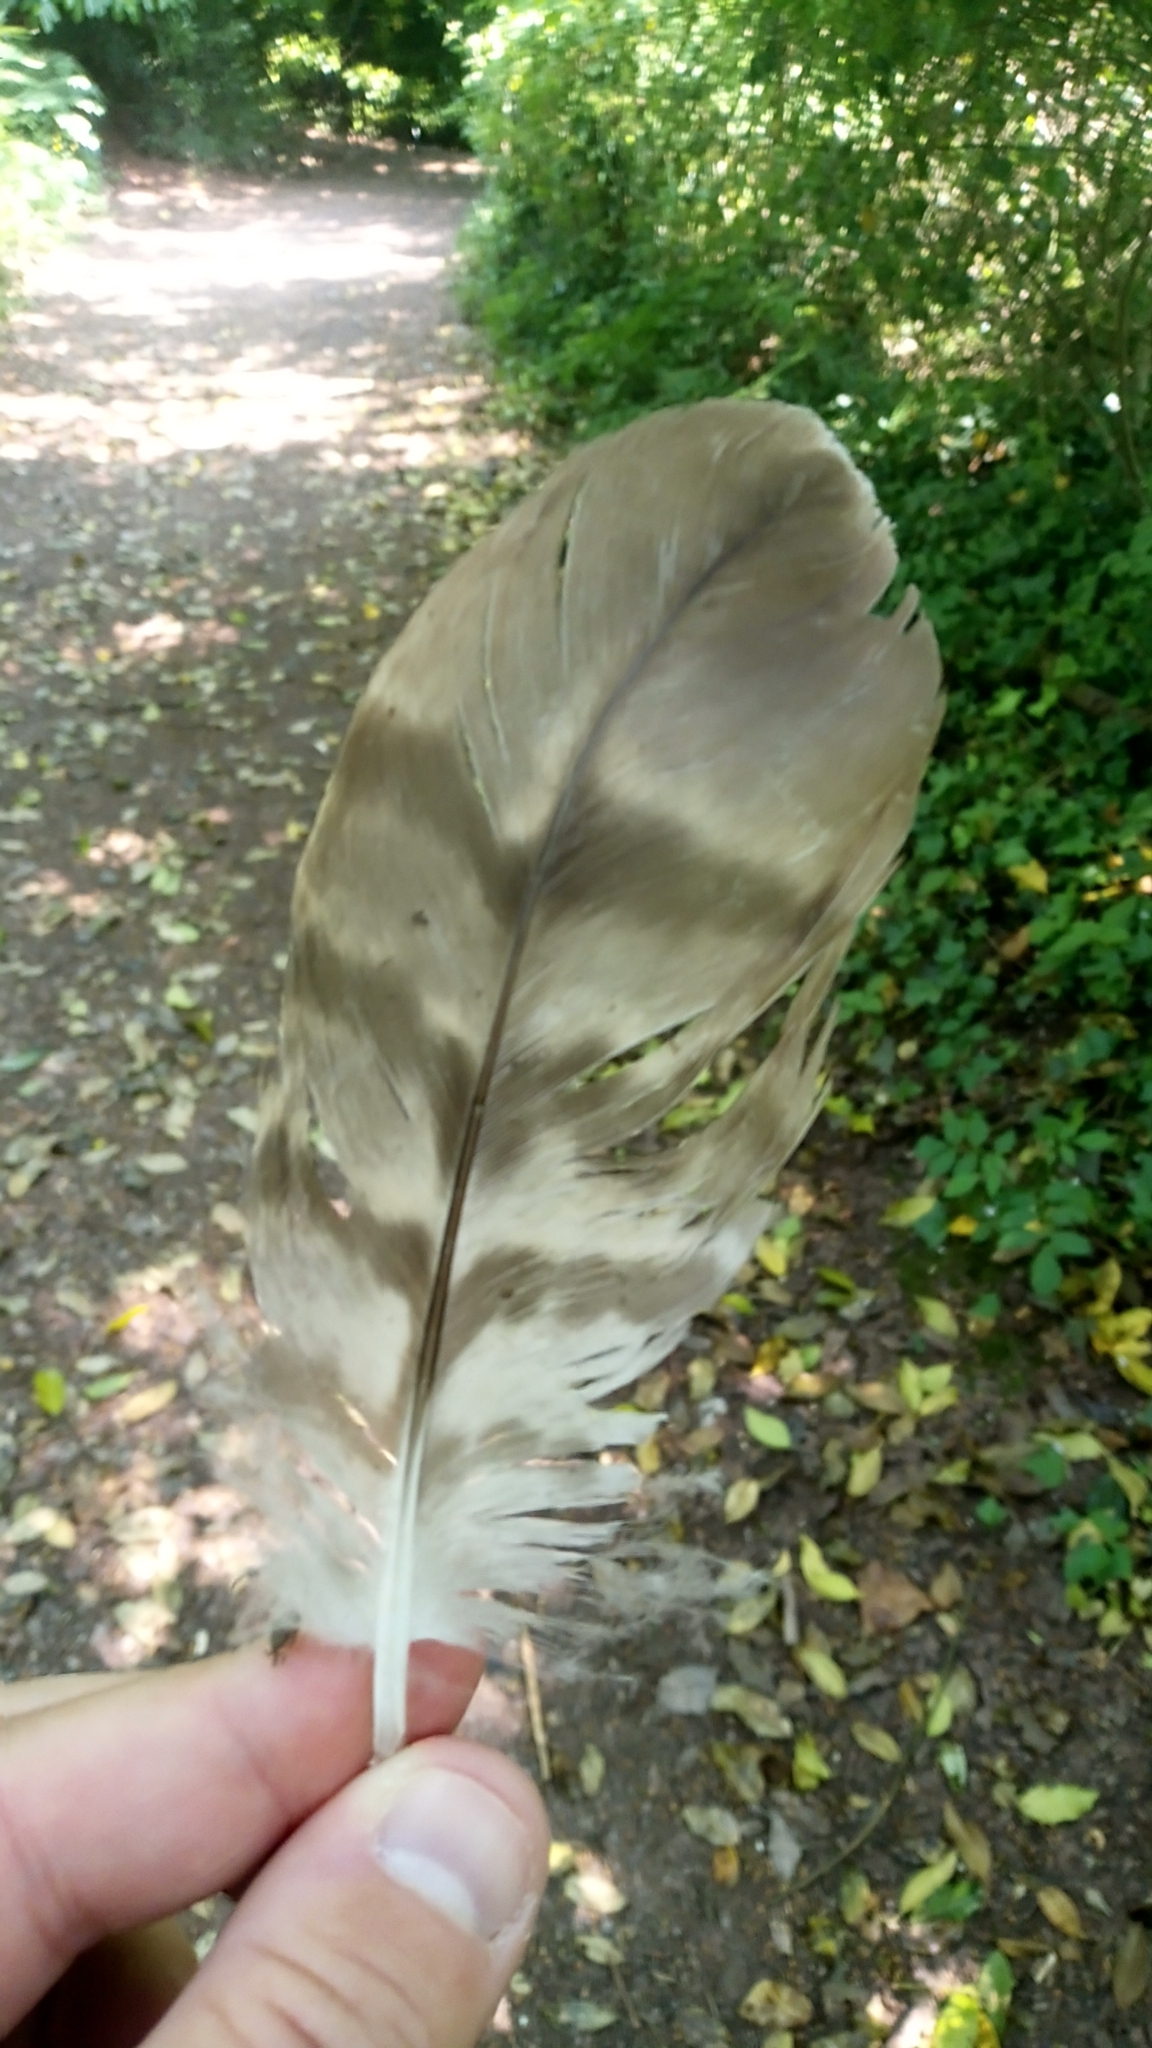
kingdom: Animalia
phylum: Chordata
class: Aves
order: Accipitriformes
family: Accipitridae
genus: Accipiter
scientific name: Accipiter gentilis
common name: Northern goshawk
